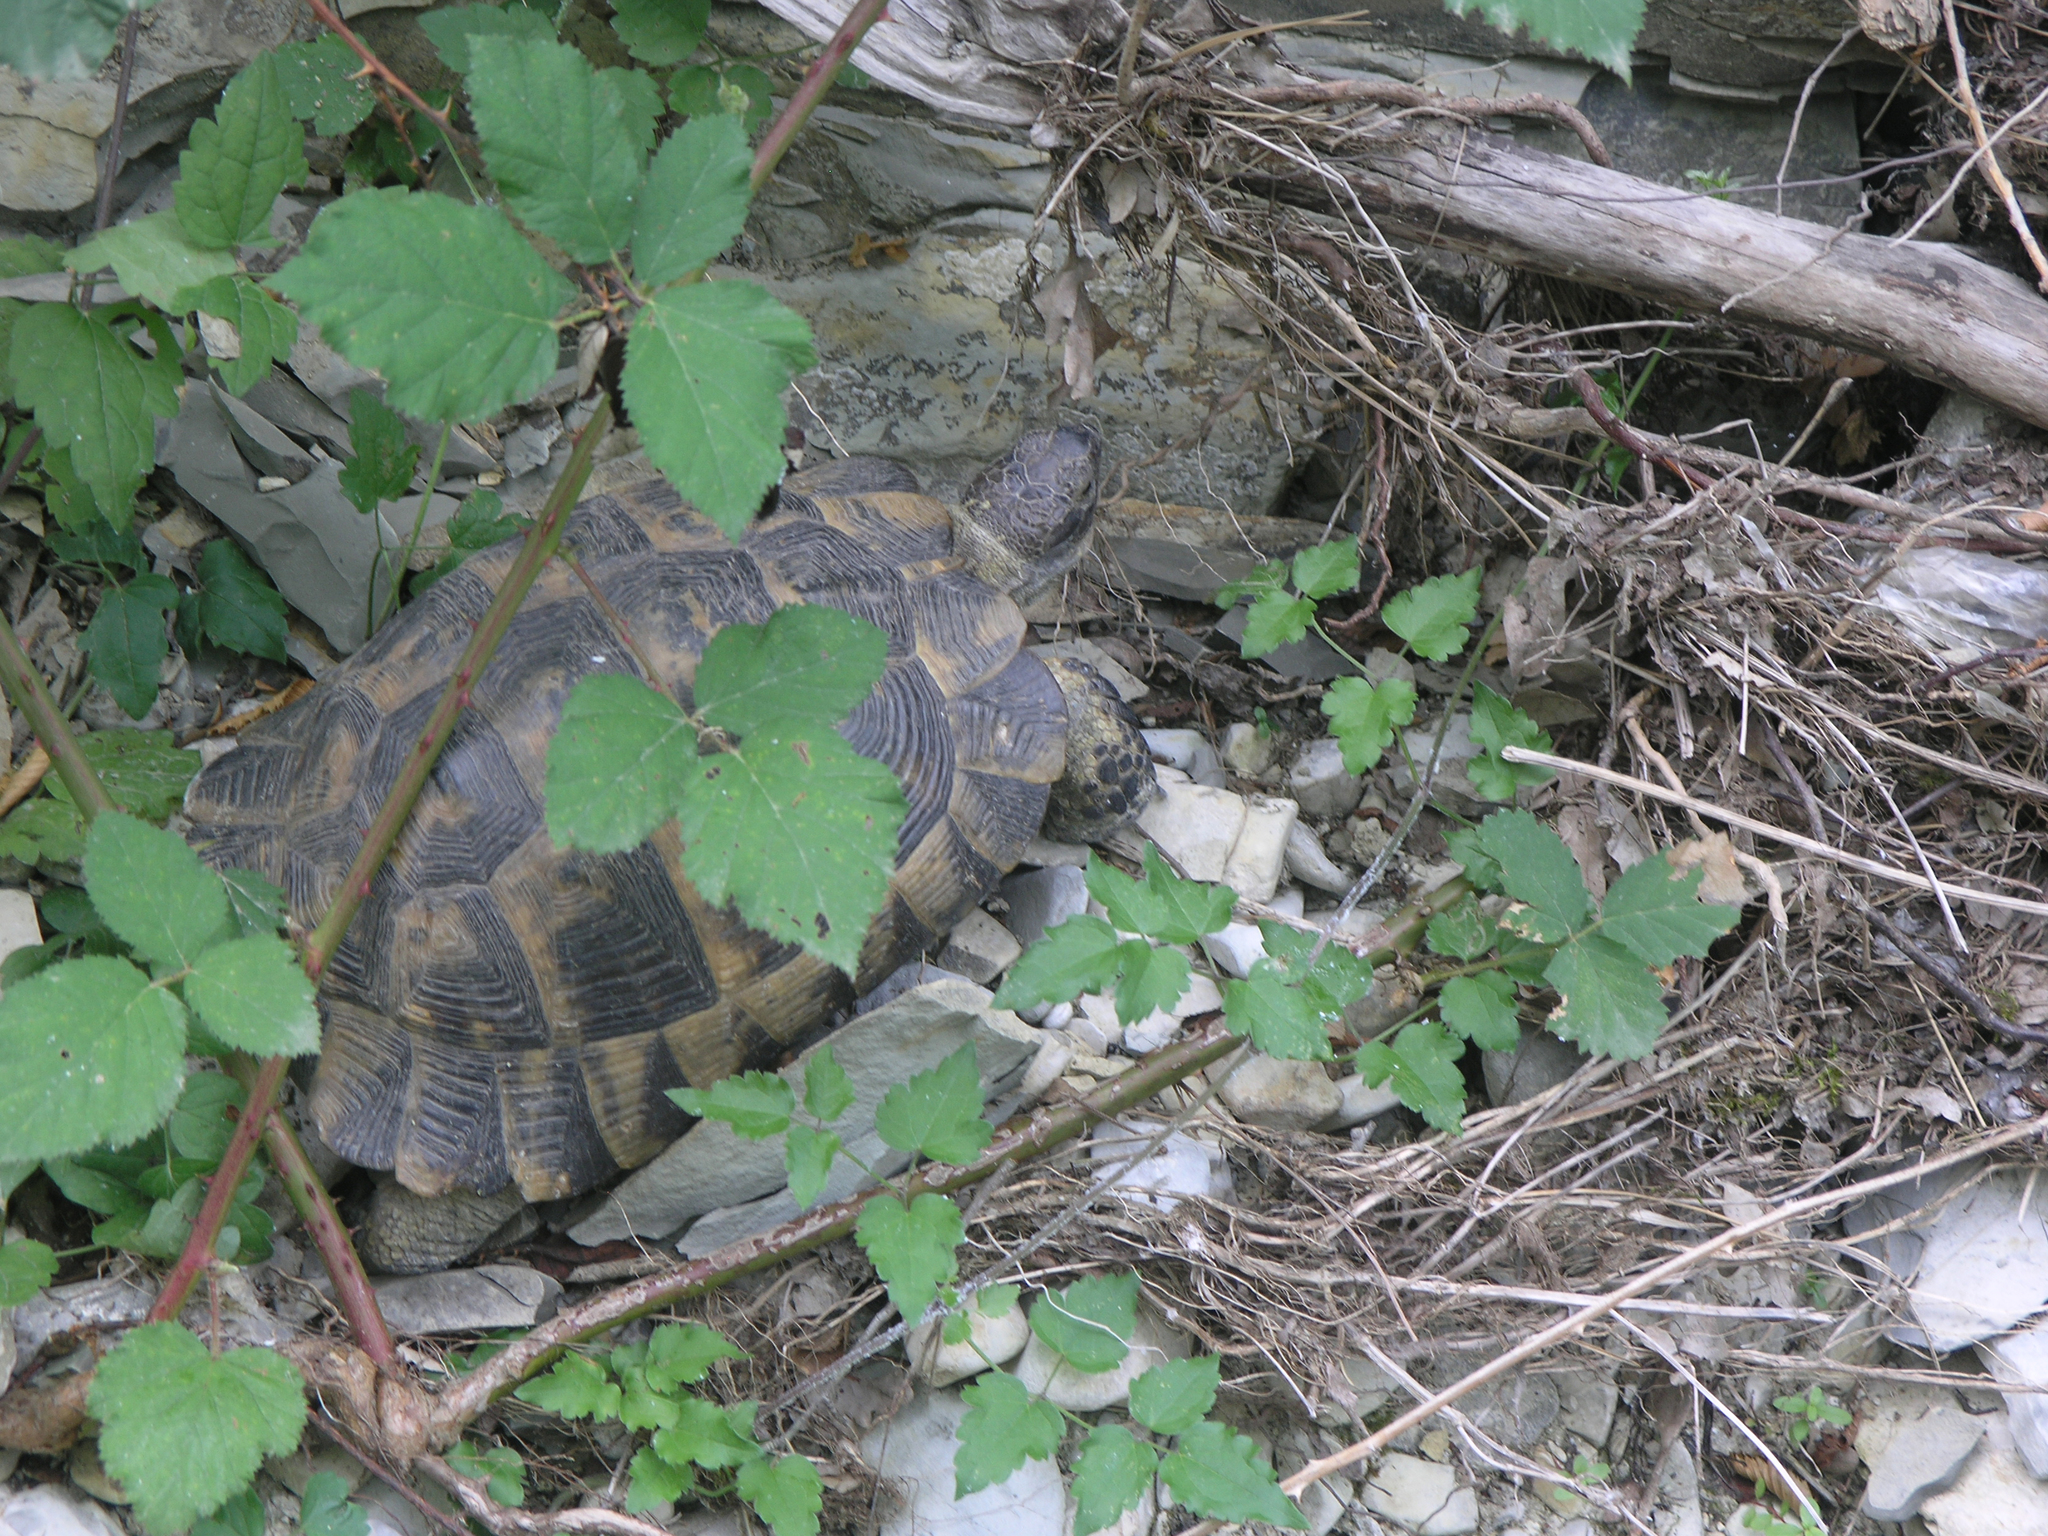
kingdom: Animalia
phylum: Chordata
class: Testudines
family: Testudinidae
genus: Testudo
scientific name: Testudo graeca
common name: Common tortoise
